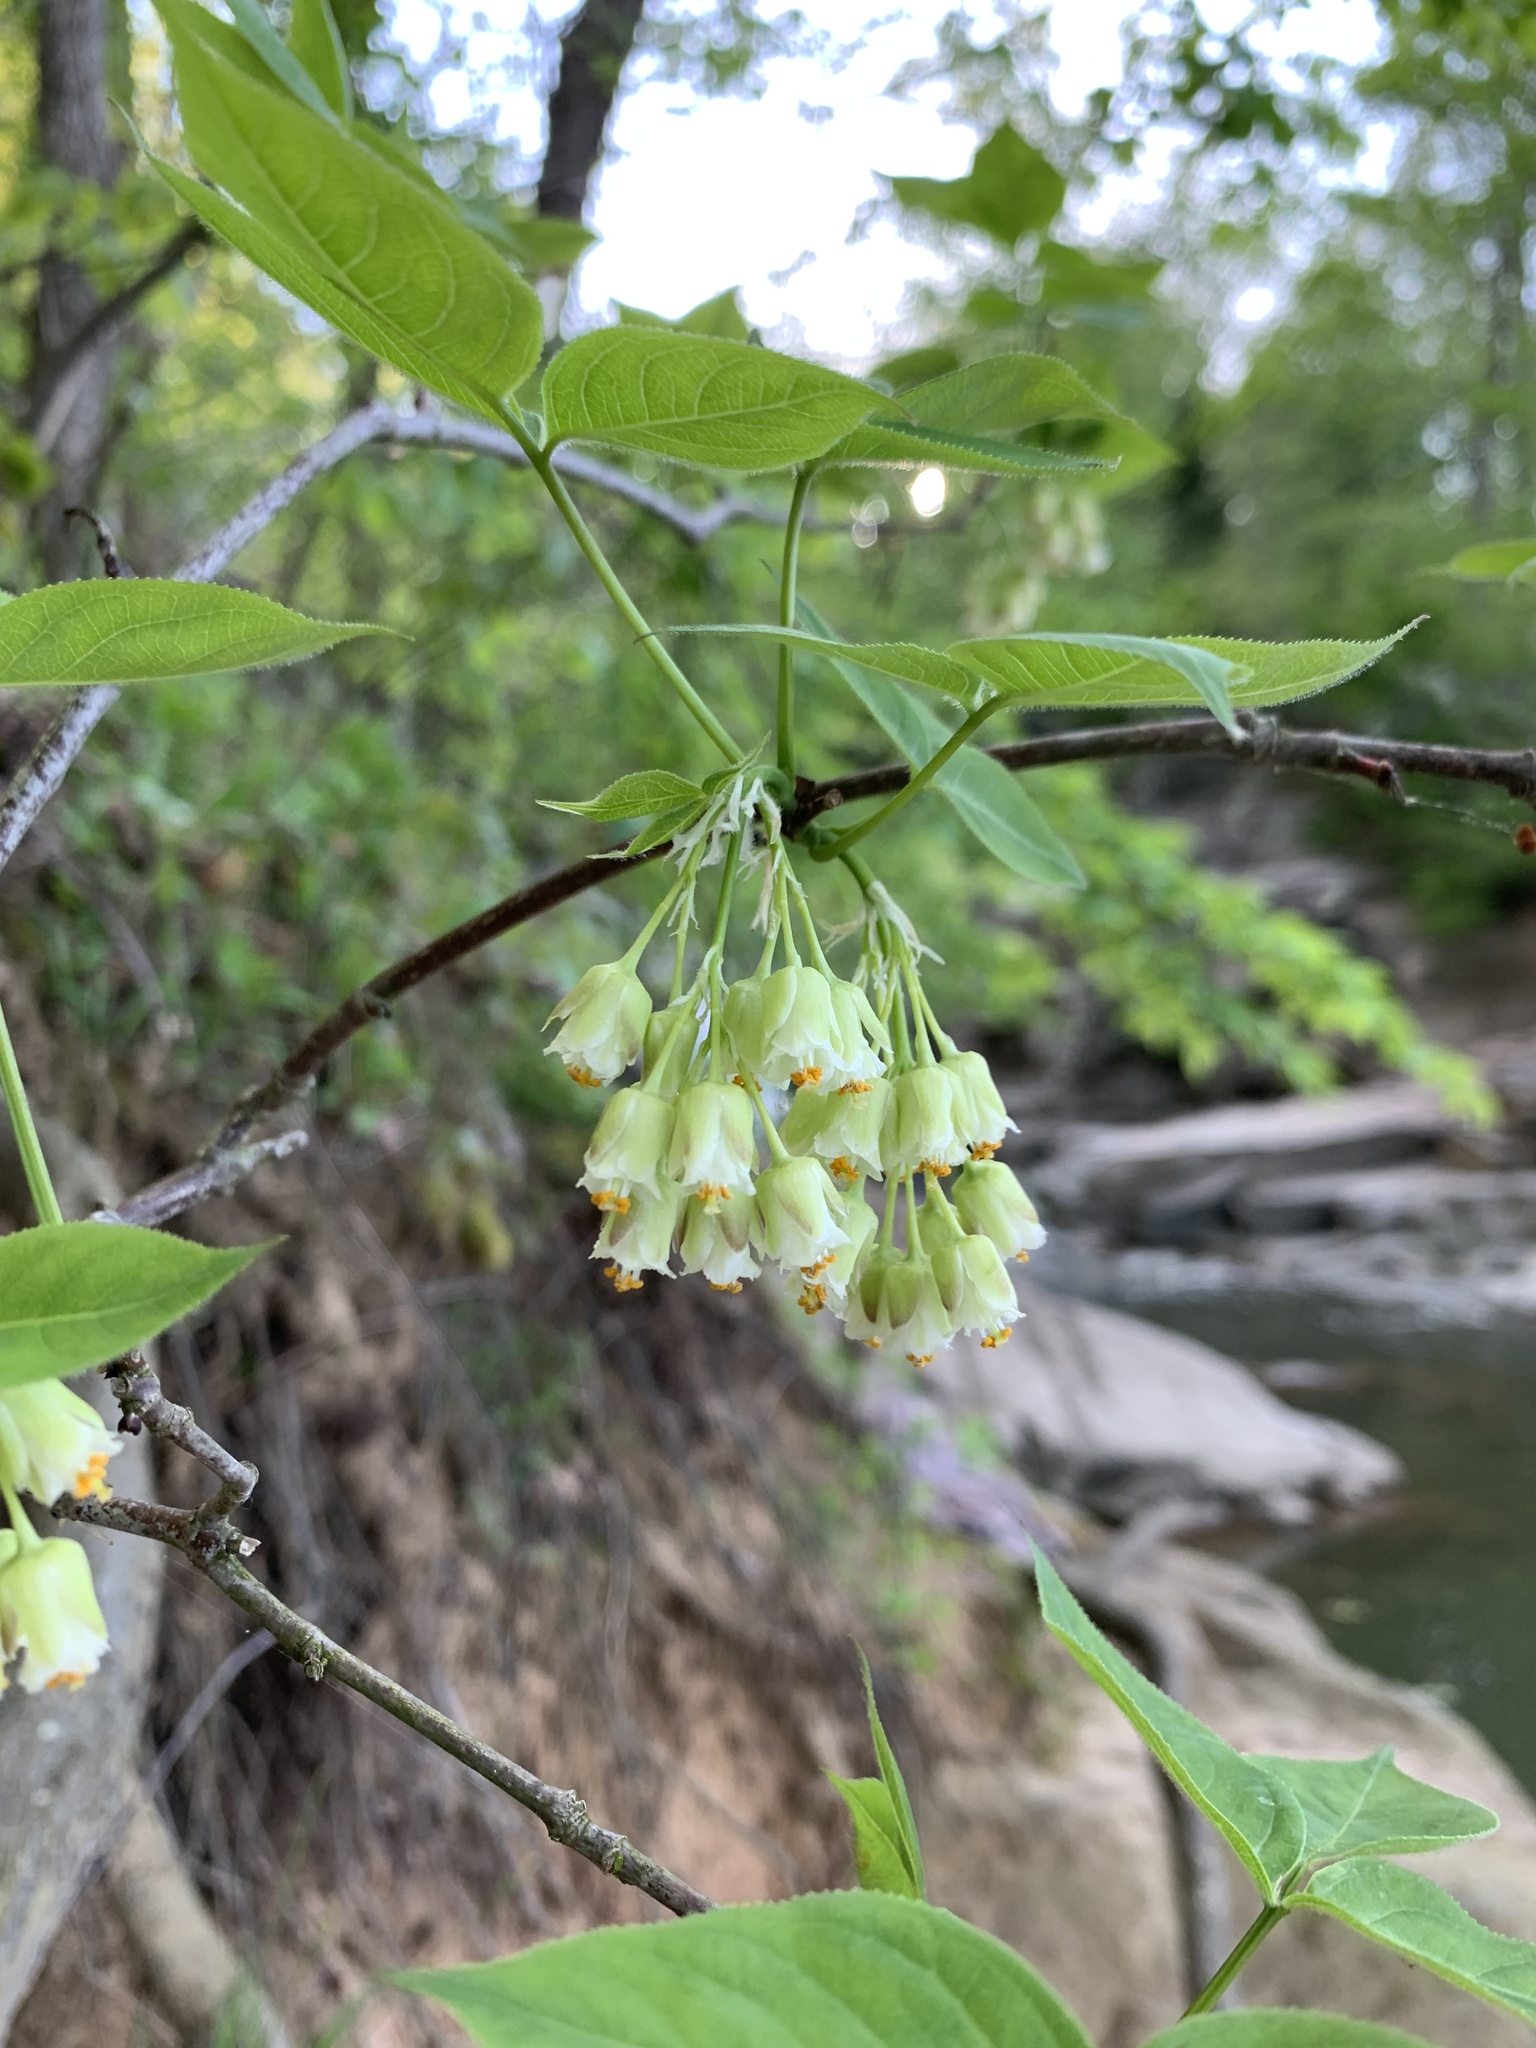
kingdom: Plantae
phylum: Tracheophyta
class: Magnoliopsida
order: Crossosomatales
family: Staphyleaceae
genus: Staphylea
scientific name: Staphylea trifolia
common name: American bladdernut
